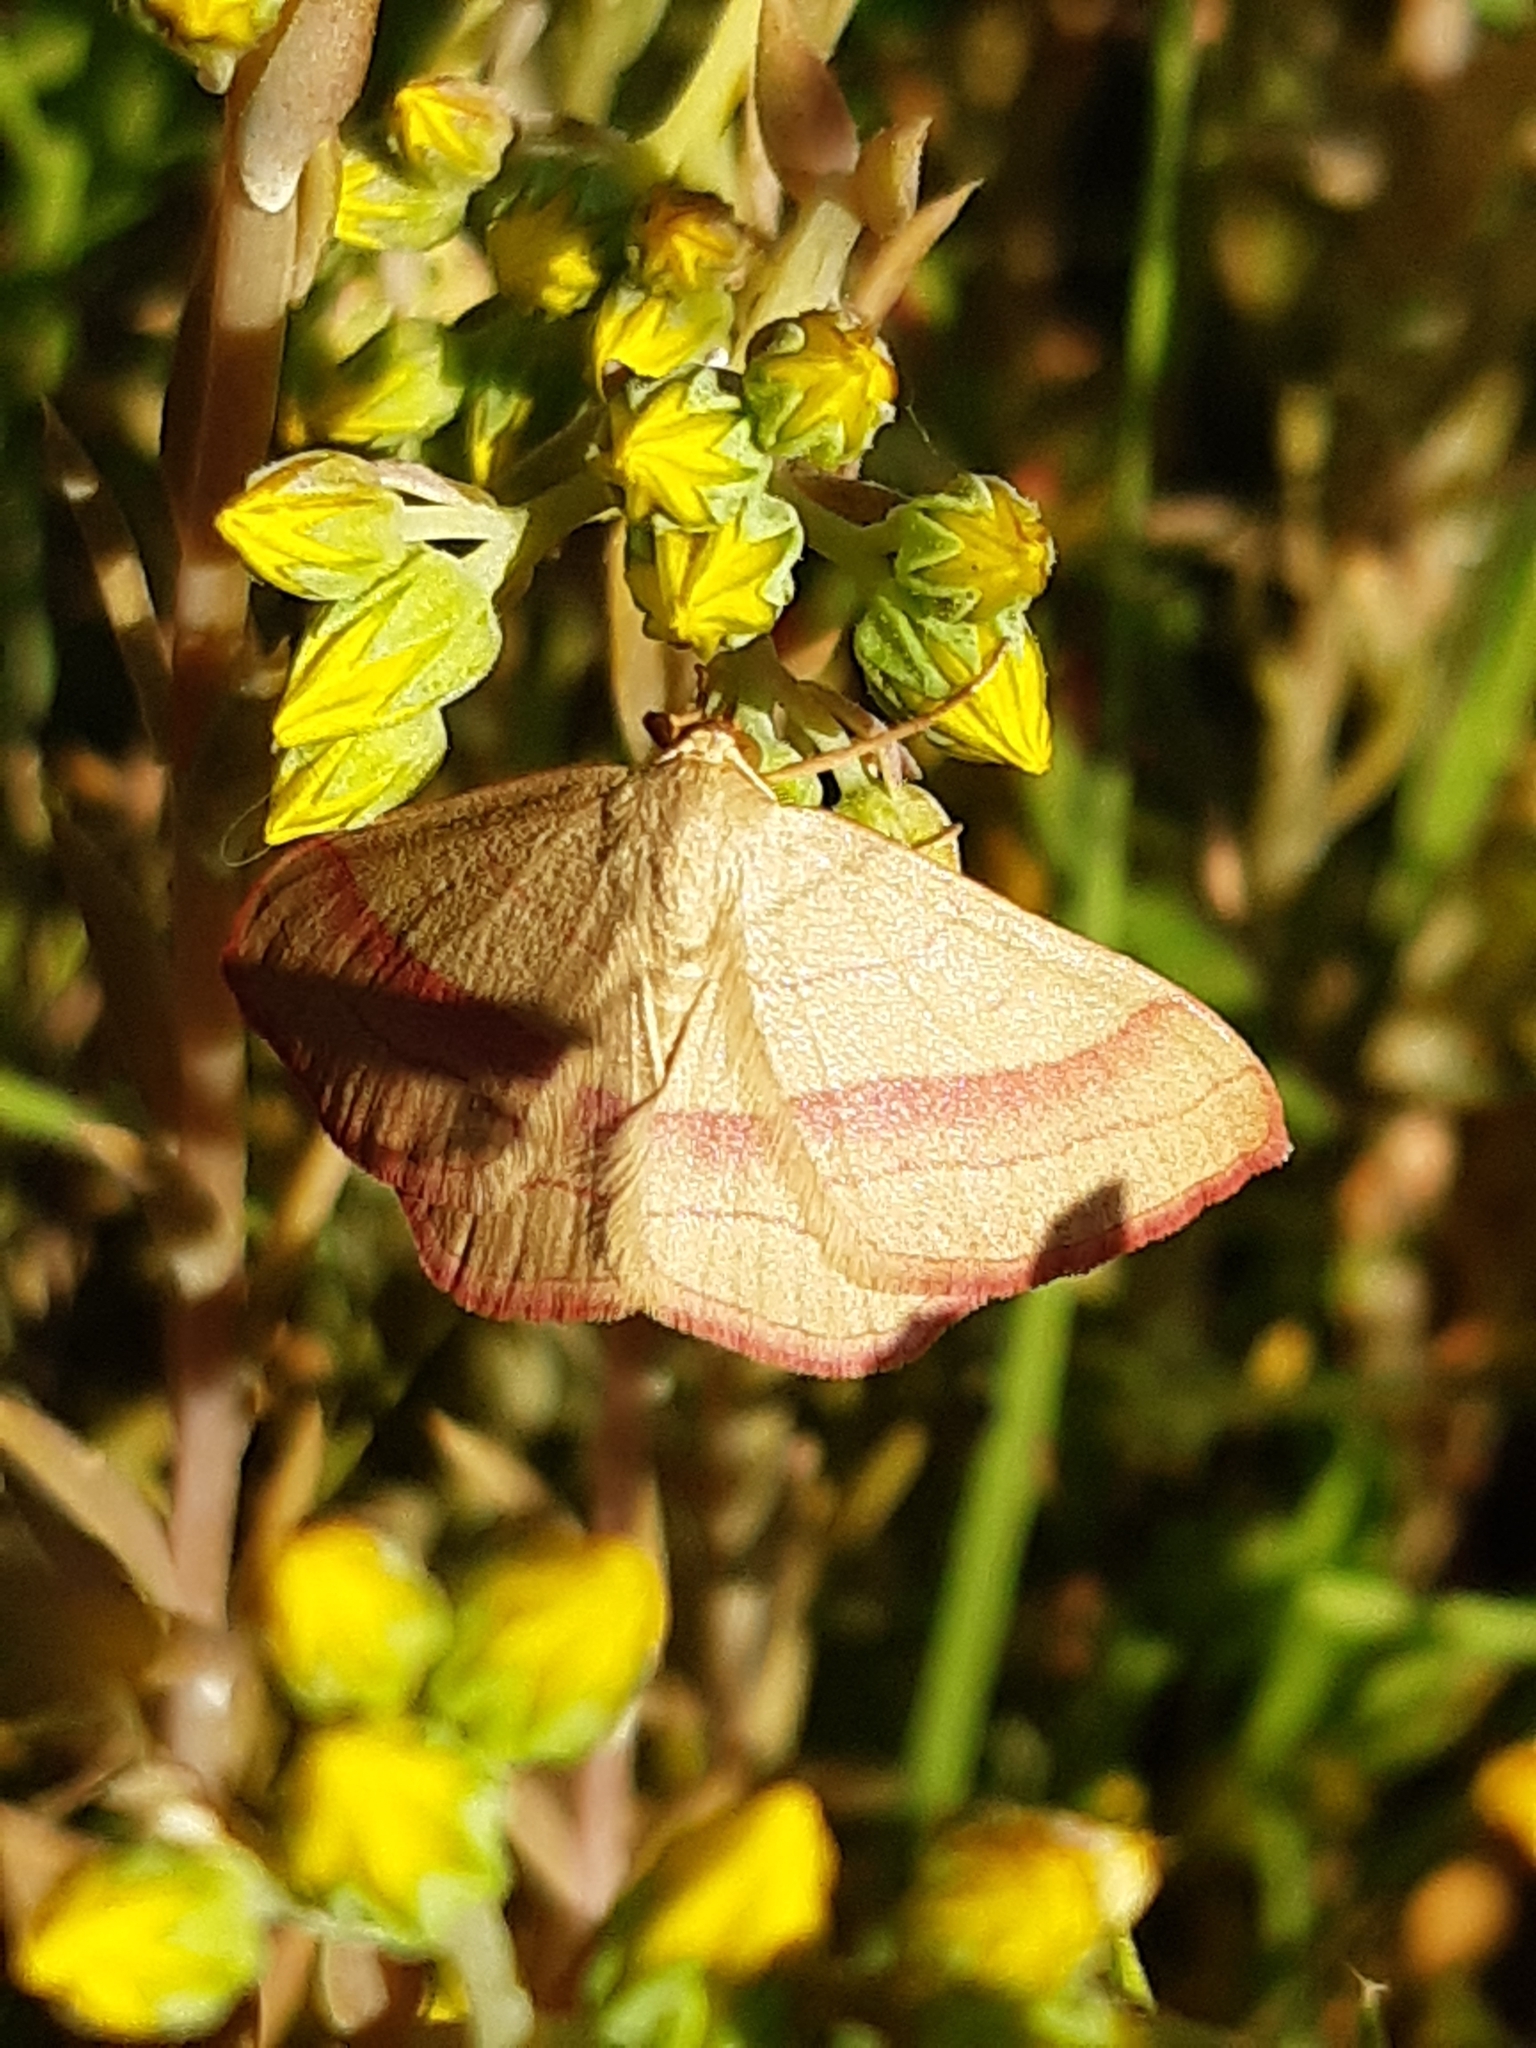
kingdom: Animalia
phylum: Arthropoda
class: Insecta
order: Lepidoptera
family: Geometridae
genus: Rhodostrophia
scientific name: Rhodostrophia vibicaria
